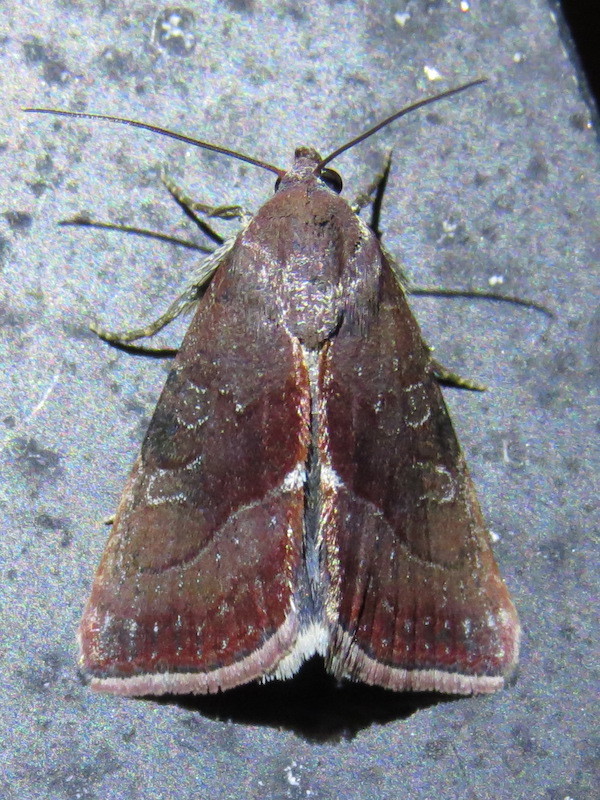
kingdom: Animalia
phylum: Arthropoda
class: Insecta
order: Lepidoptera
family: Noctuidae
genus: Galgula
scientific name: Galgula partita
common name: Wedgeling
